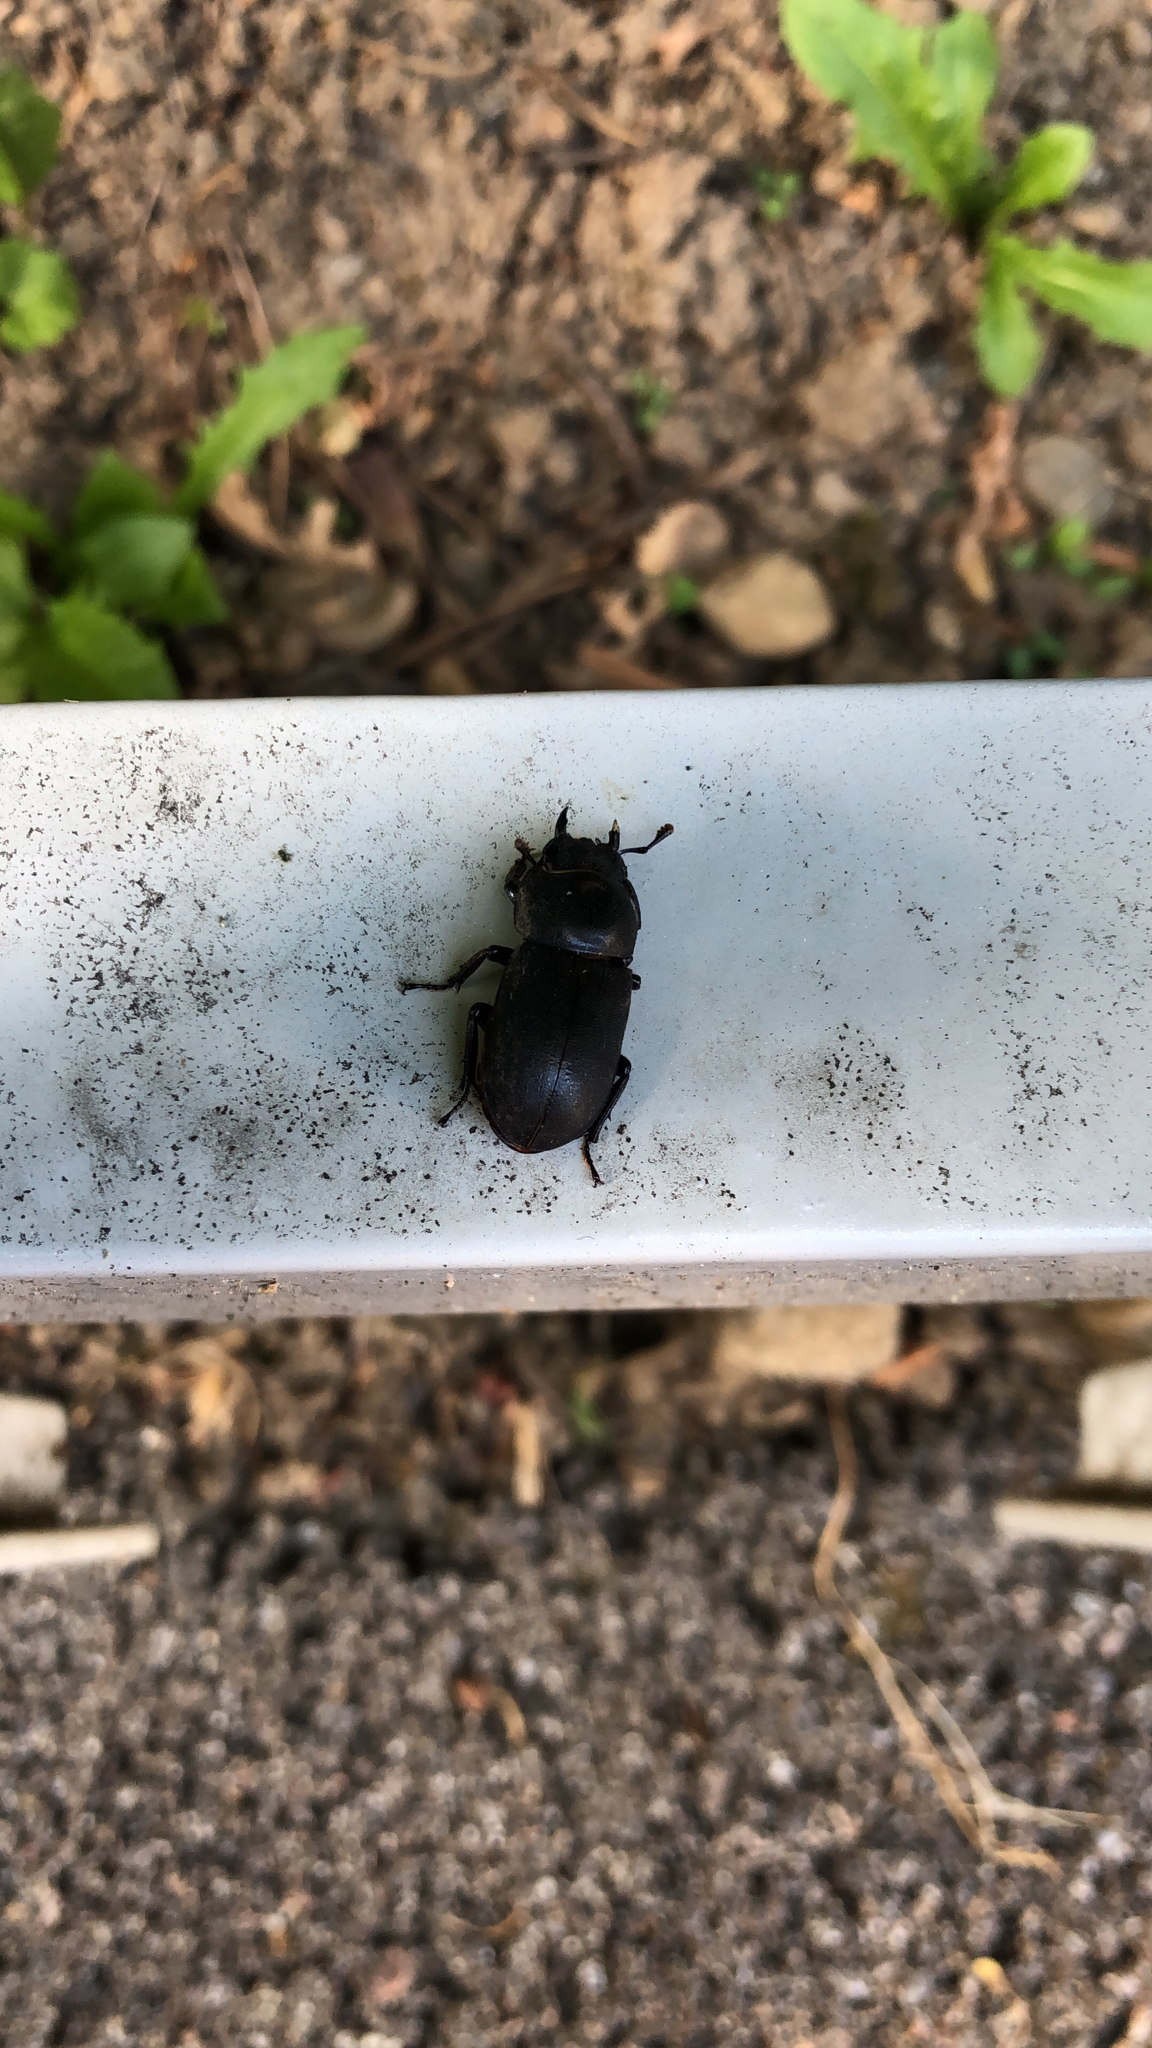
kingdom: Animalia
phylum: Arthropoda
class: Insecta
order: Coleoptera
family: Lucanidae
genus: Dorcus
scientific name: Dorcus parallelipipedus
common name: Lesser stag beetle
